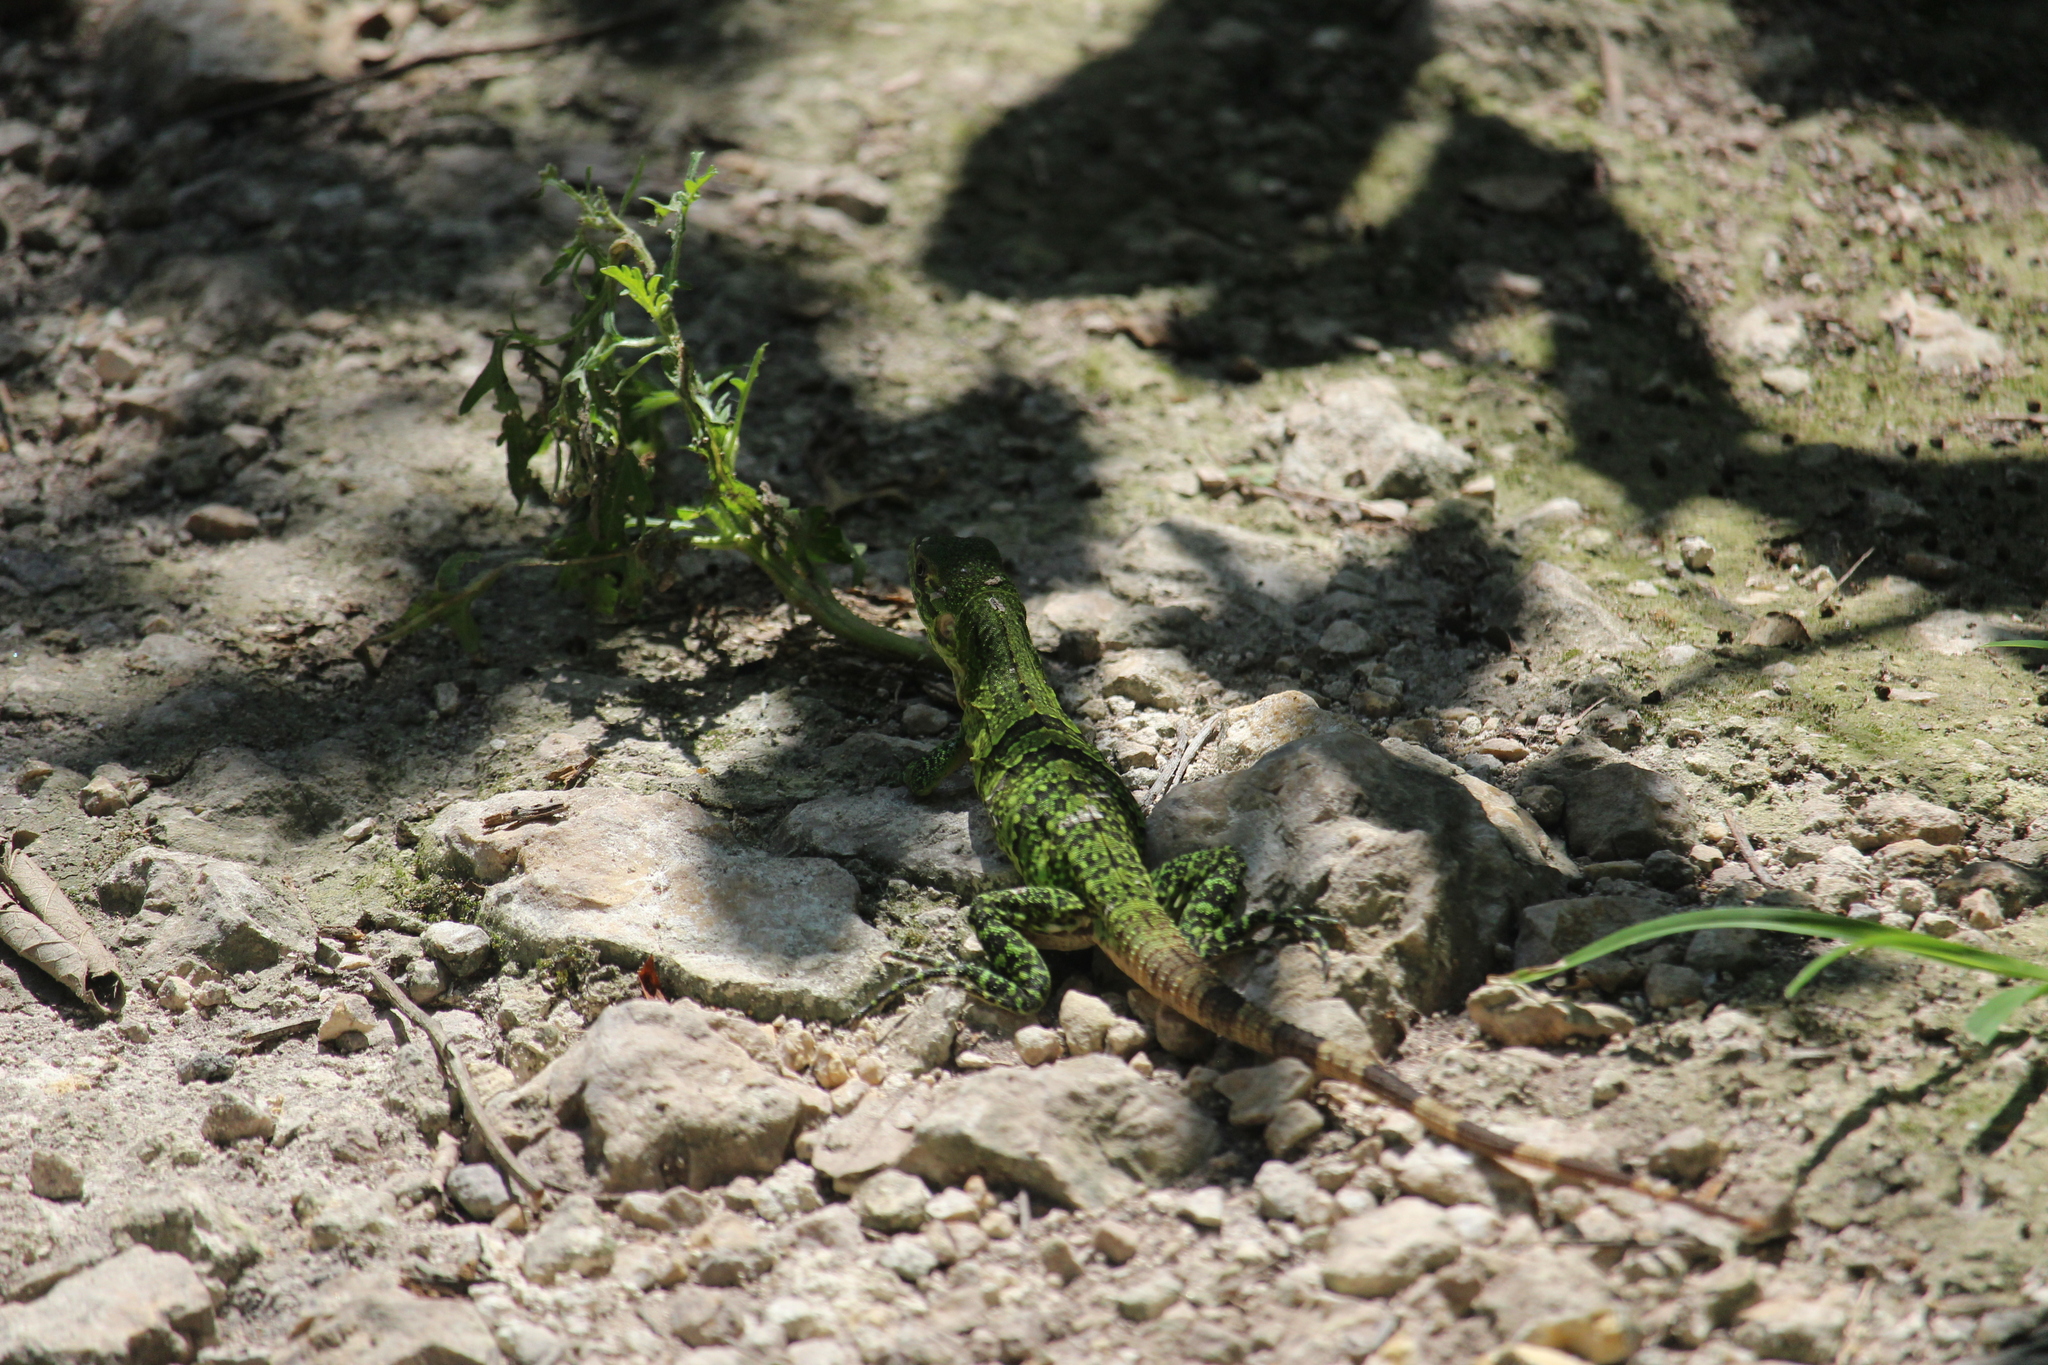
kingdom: Animalia
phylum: Chordata
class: Squamata
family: Iguanidae
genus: Ctenosaura
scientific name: Ctenosaura similis
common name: Black spiny-tailed iguana
